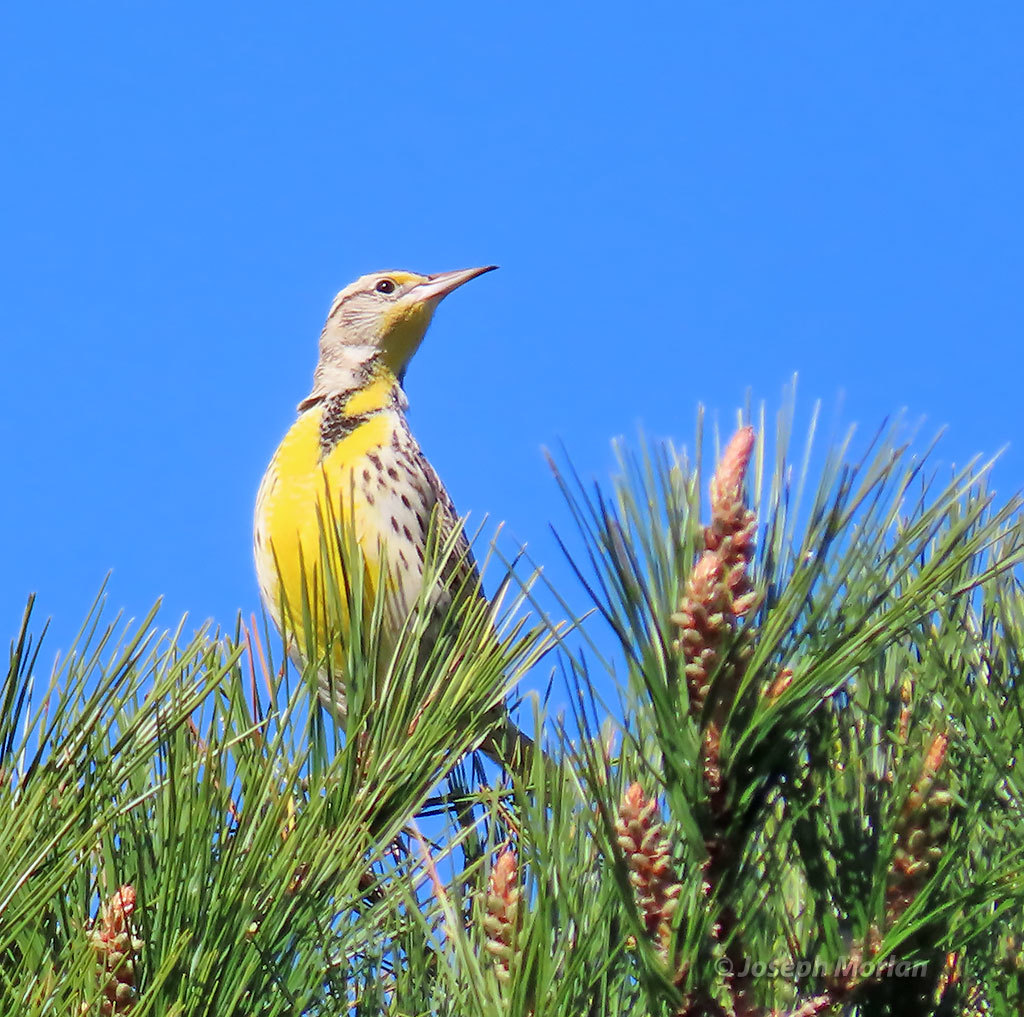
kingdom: Animalia
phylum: Chordata
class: Aves
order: Passeriformes
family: Icteridae
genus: Sturnella
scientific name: Sturnella neglecta
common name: Western meadowlark
